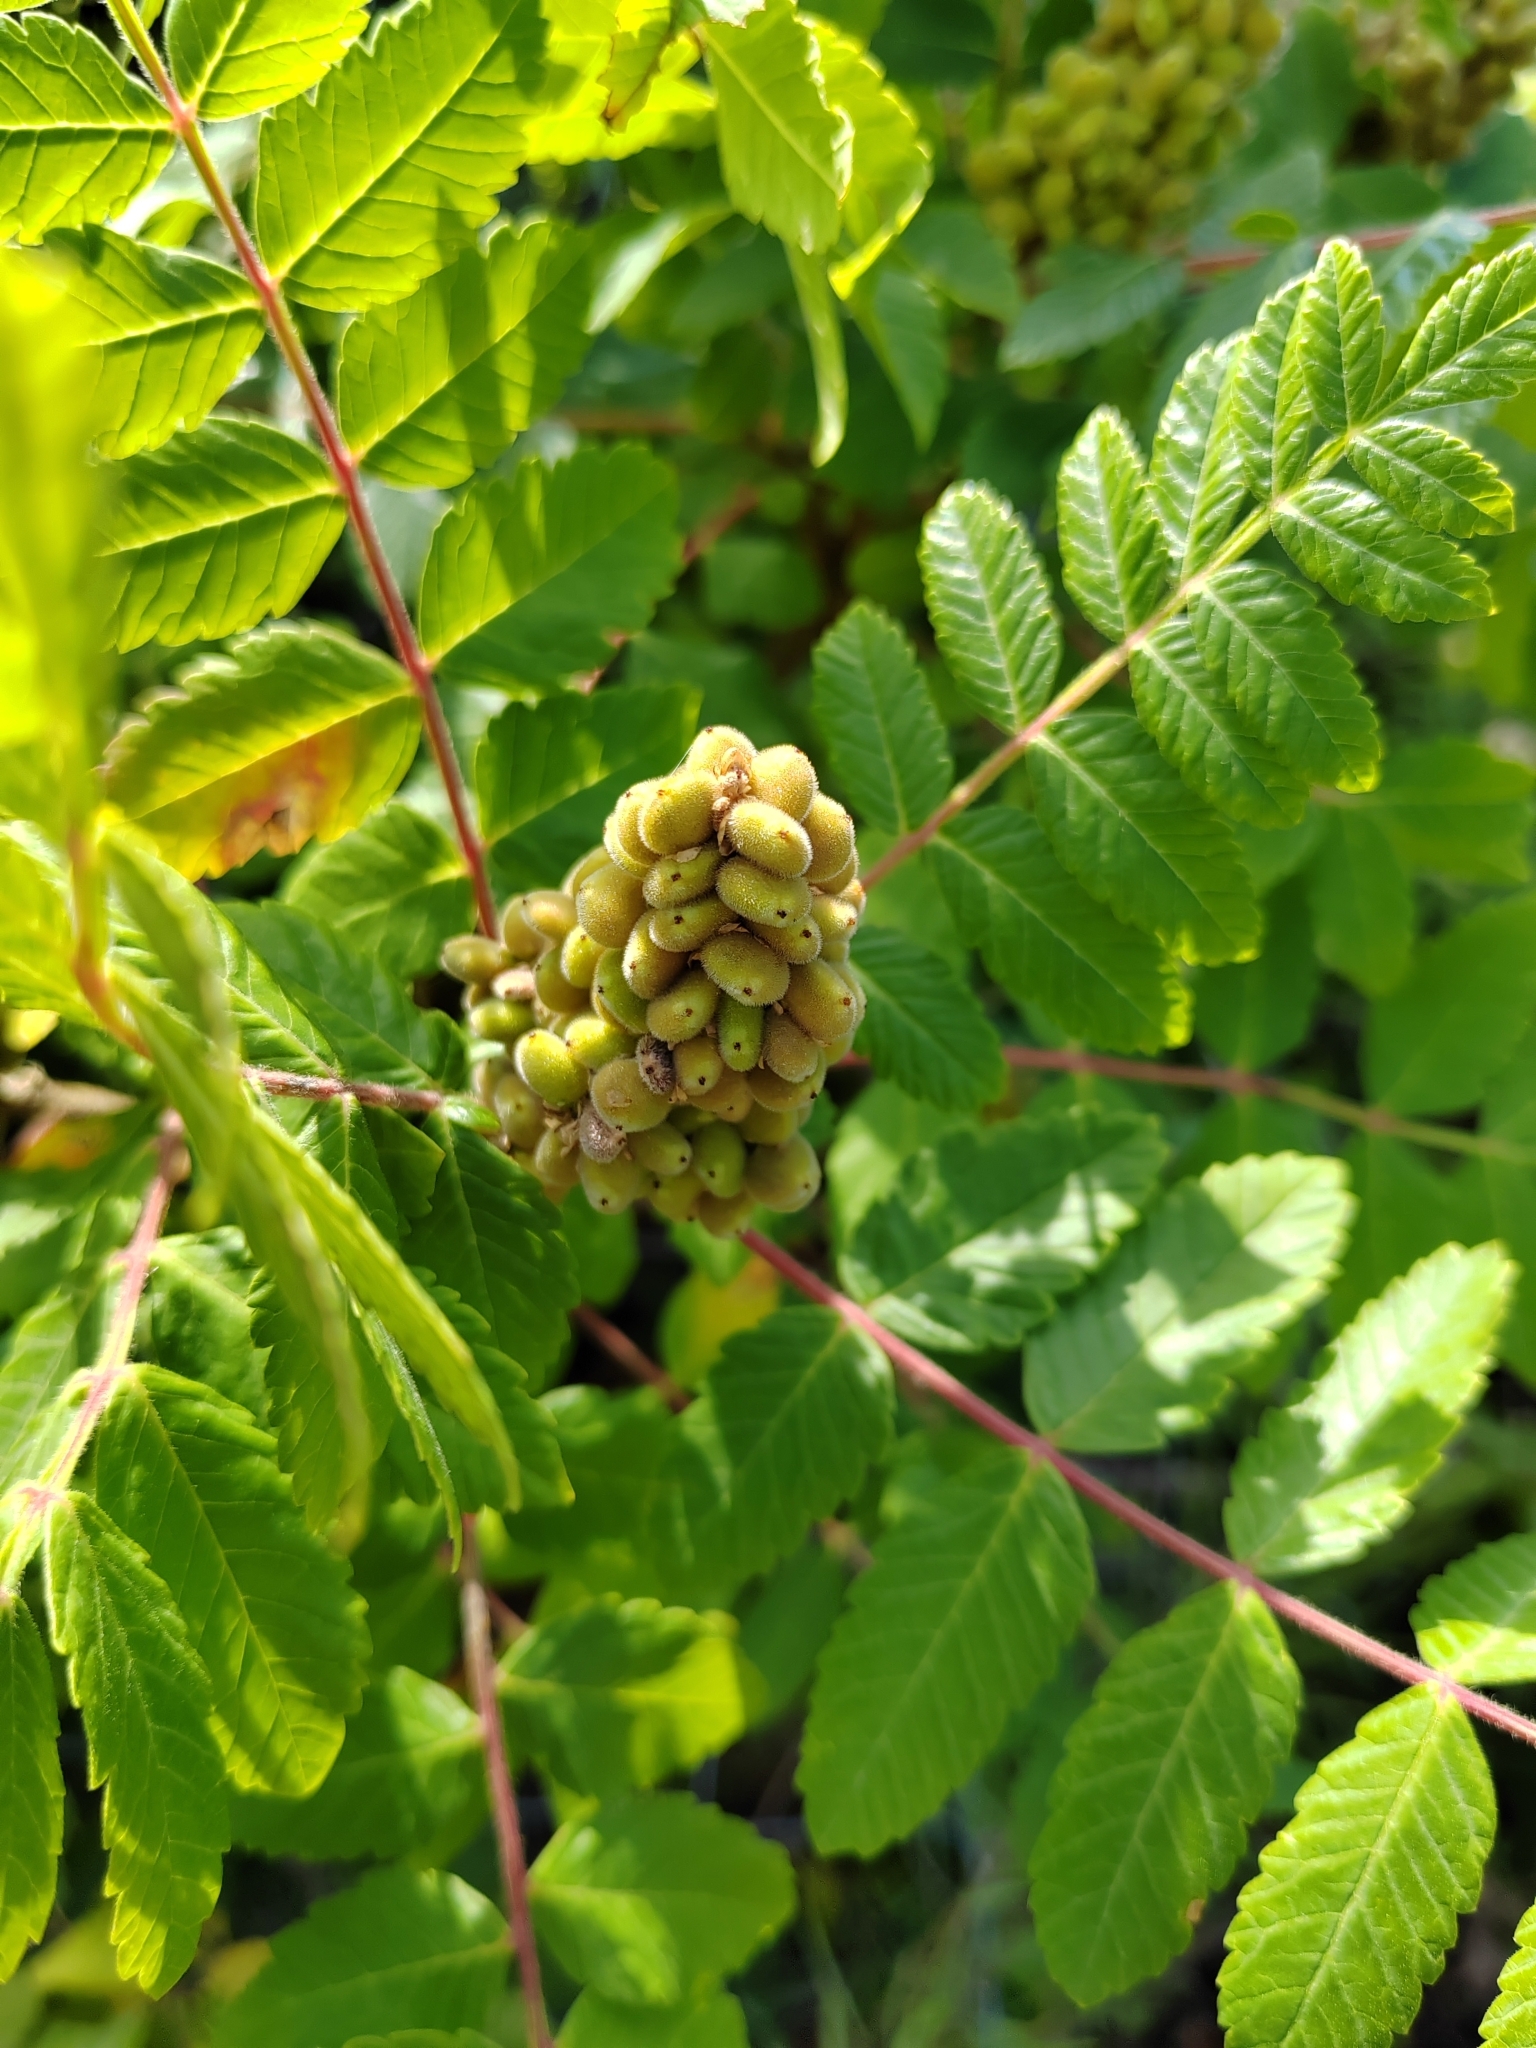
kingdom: Plantae
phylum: Tracheophyta
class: Magnoliopsida
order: Sapindales
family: Anacardiaceae
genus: Rhus
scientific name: Rhus coriaria
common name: Tanner's sumach
